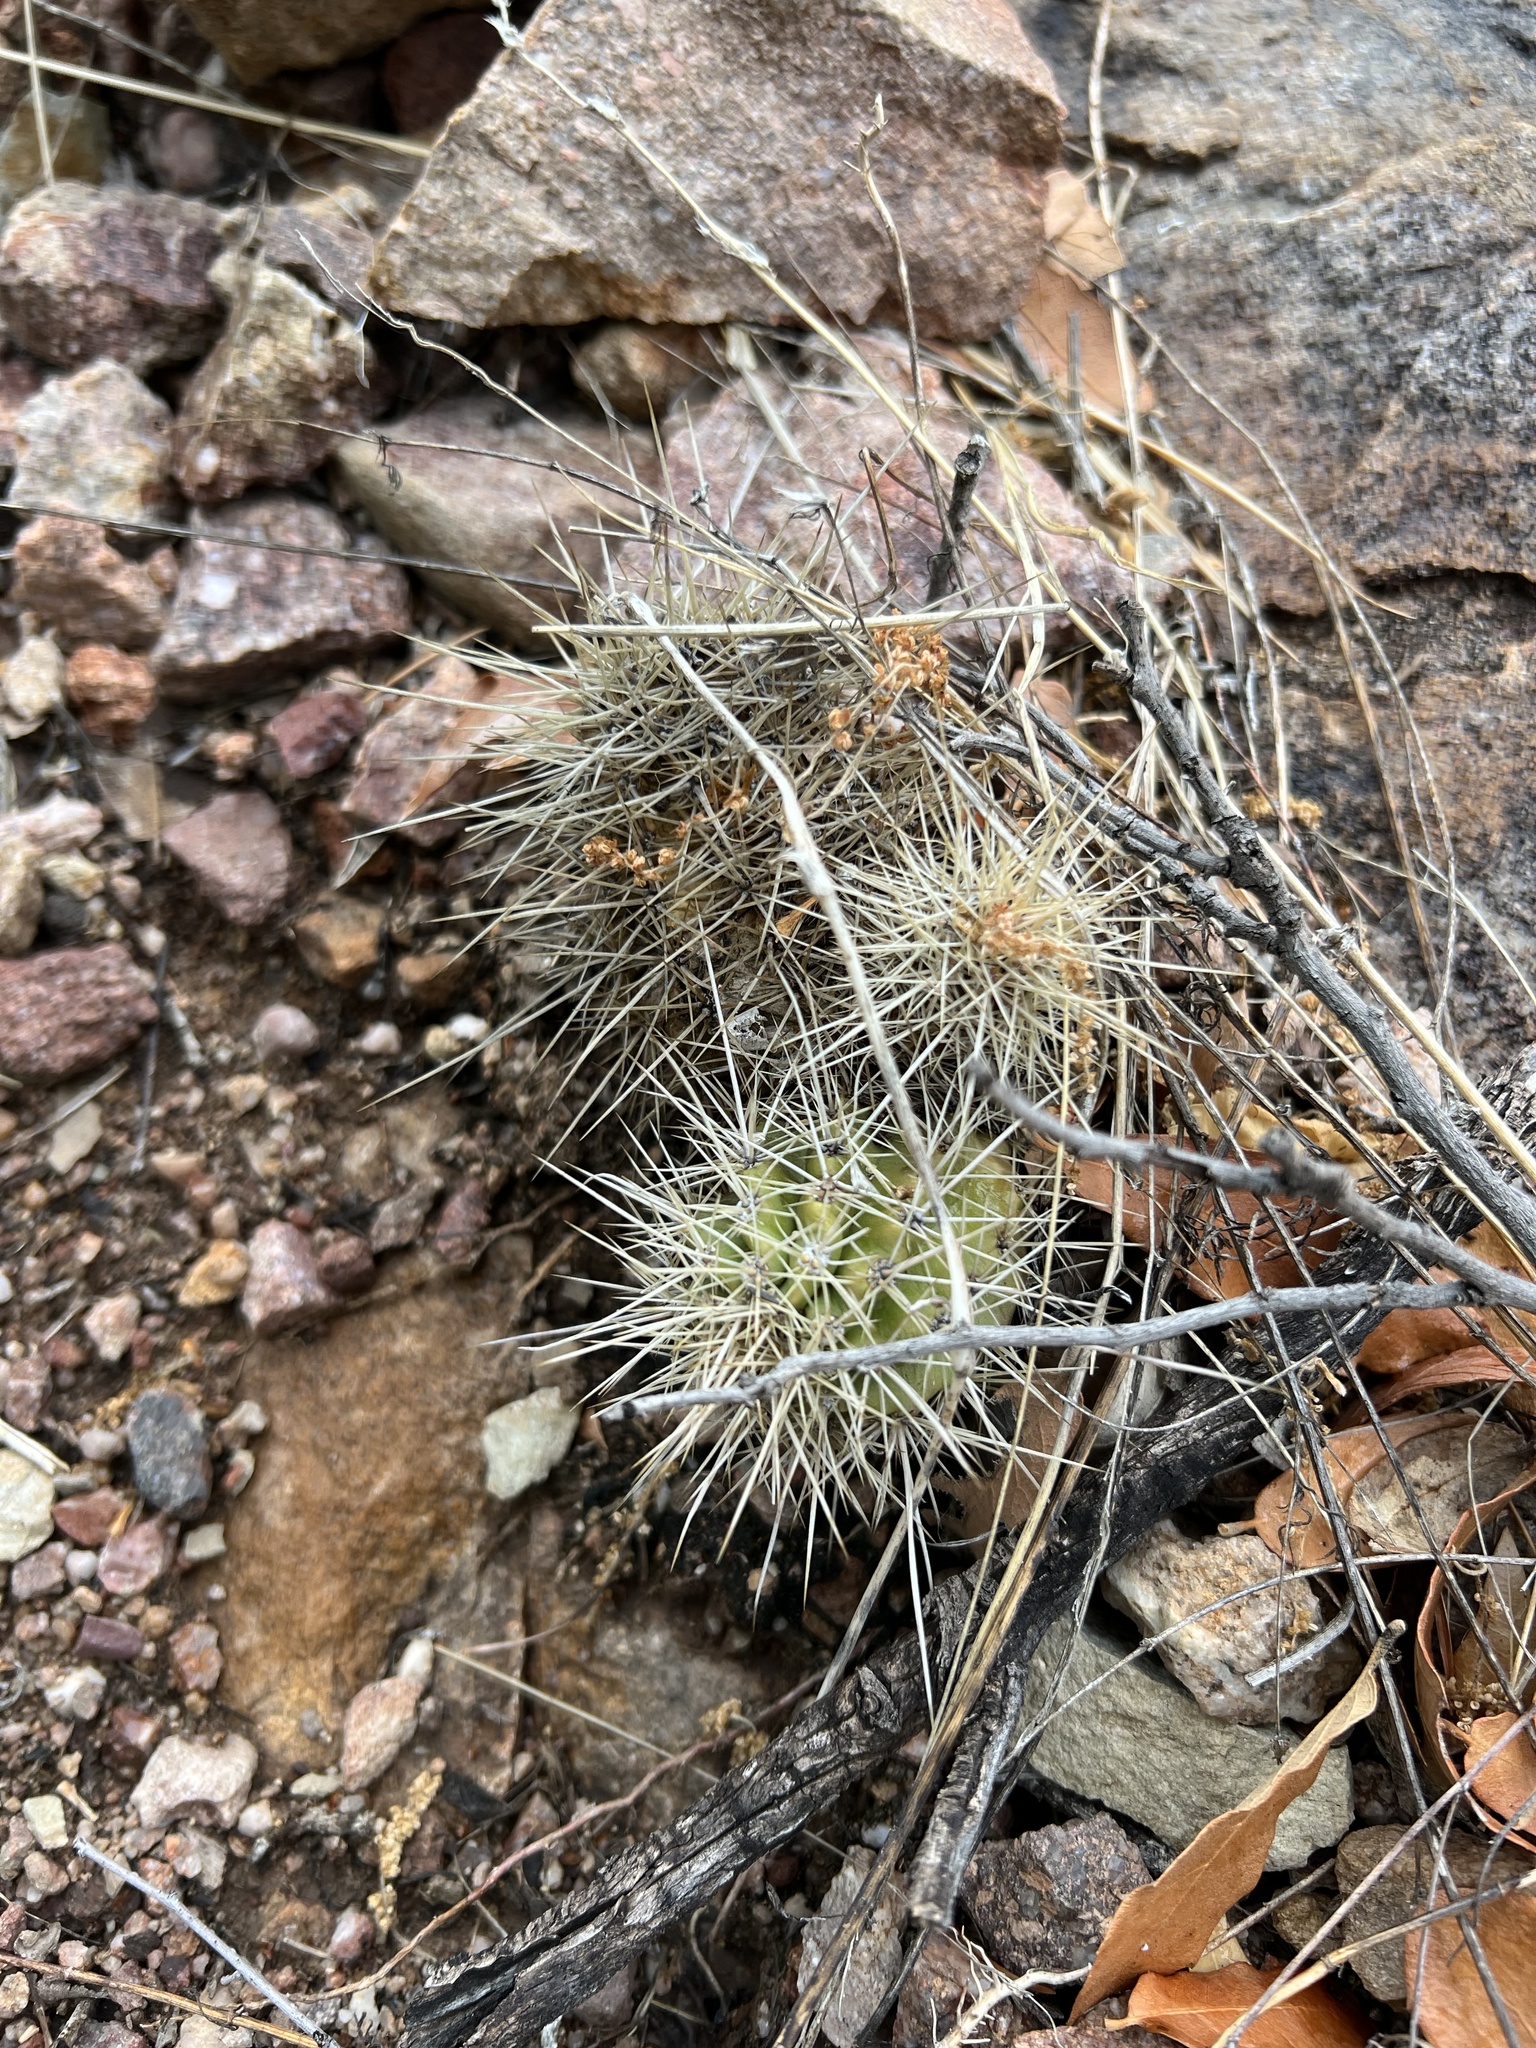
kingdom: Plantae
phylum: Tracheophyta
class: Magnoliopsida
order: Caryophyllales
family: Cactaceae
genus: Echinocereus
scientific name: Echinocereus coccineus
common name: Scarlet hedgehog cactus
